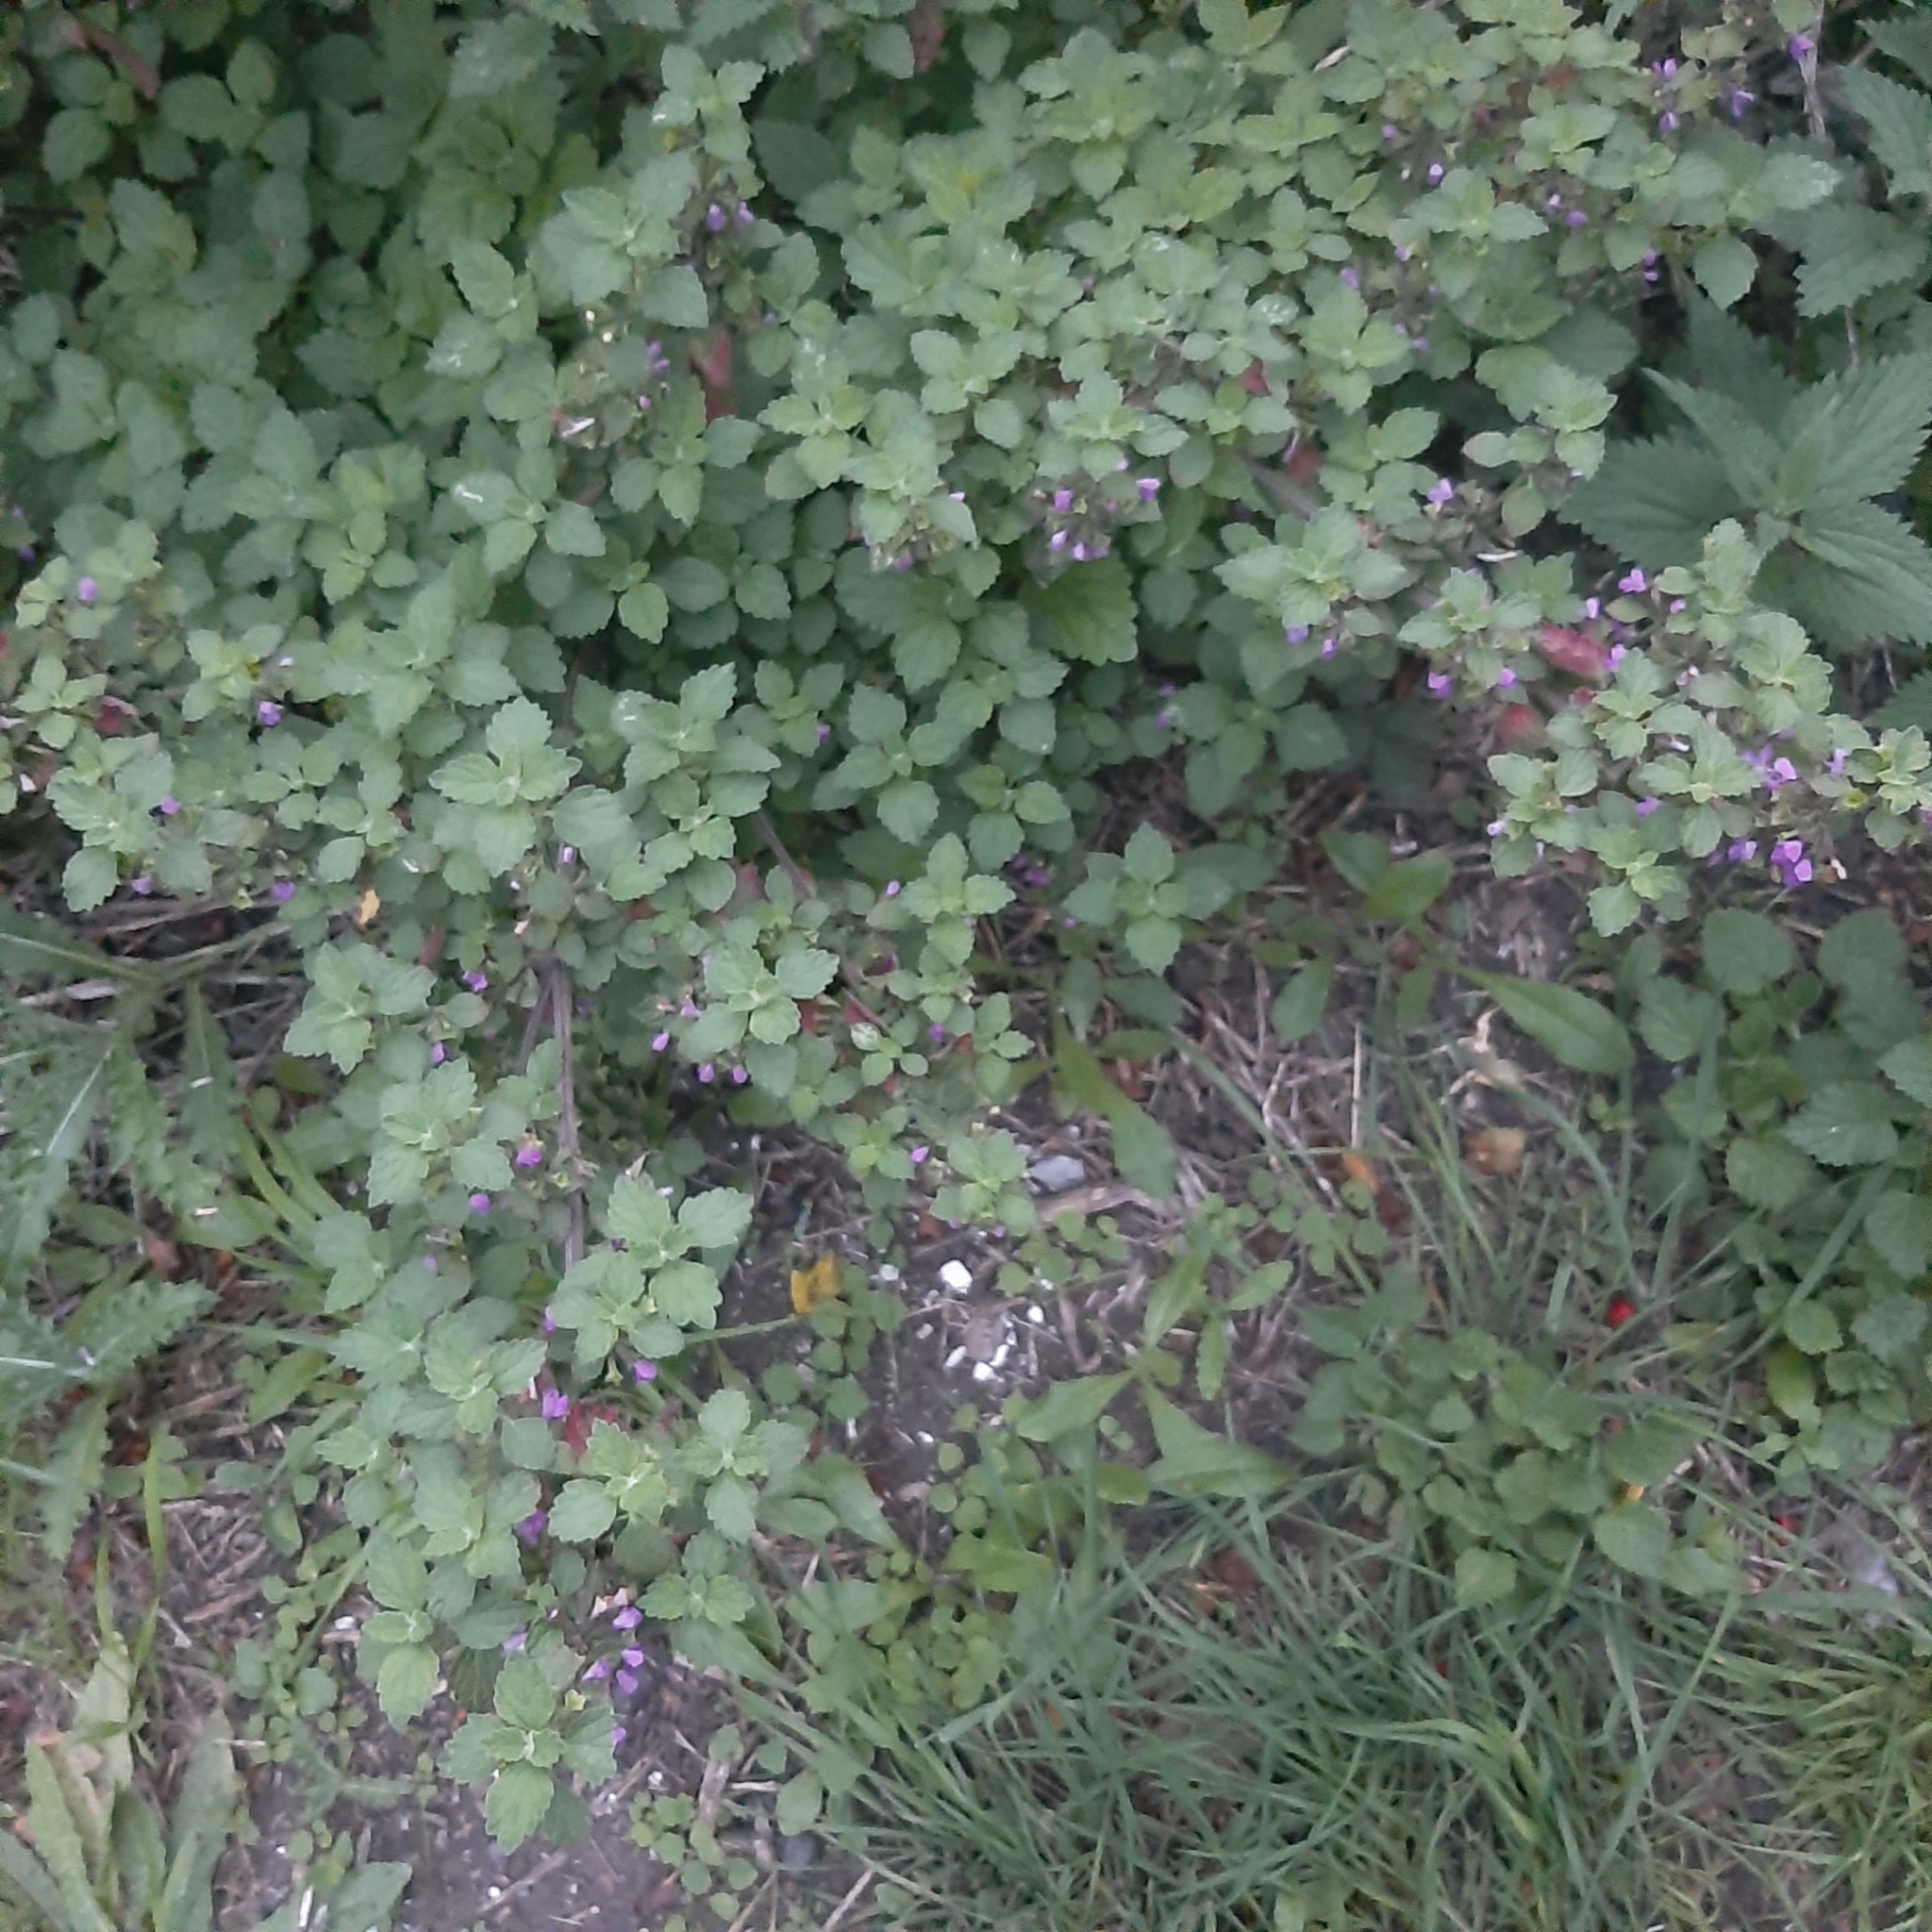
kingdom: Plantae
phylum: Tracheophyta
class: Magnoliopsida
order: Lamiales
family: Lamiaceae
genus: Ballota
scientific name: Ballota nigra
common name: Black horehound
